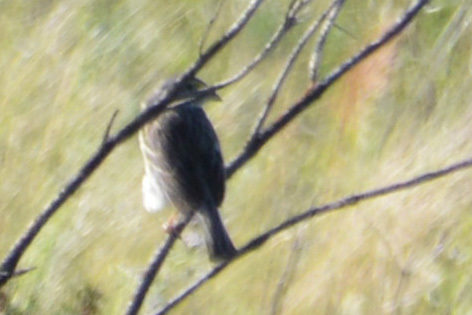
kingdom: Animalia
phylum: Chordata
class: Aves
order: Passeriformes
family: Passerellidae
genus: Ammodramus
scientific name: Ammodramus humeralis
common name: Grassland sparrow
